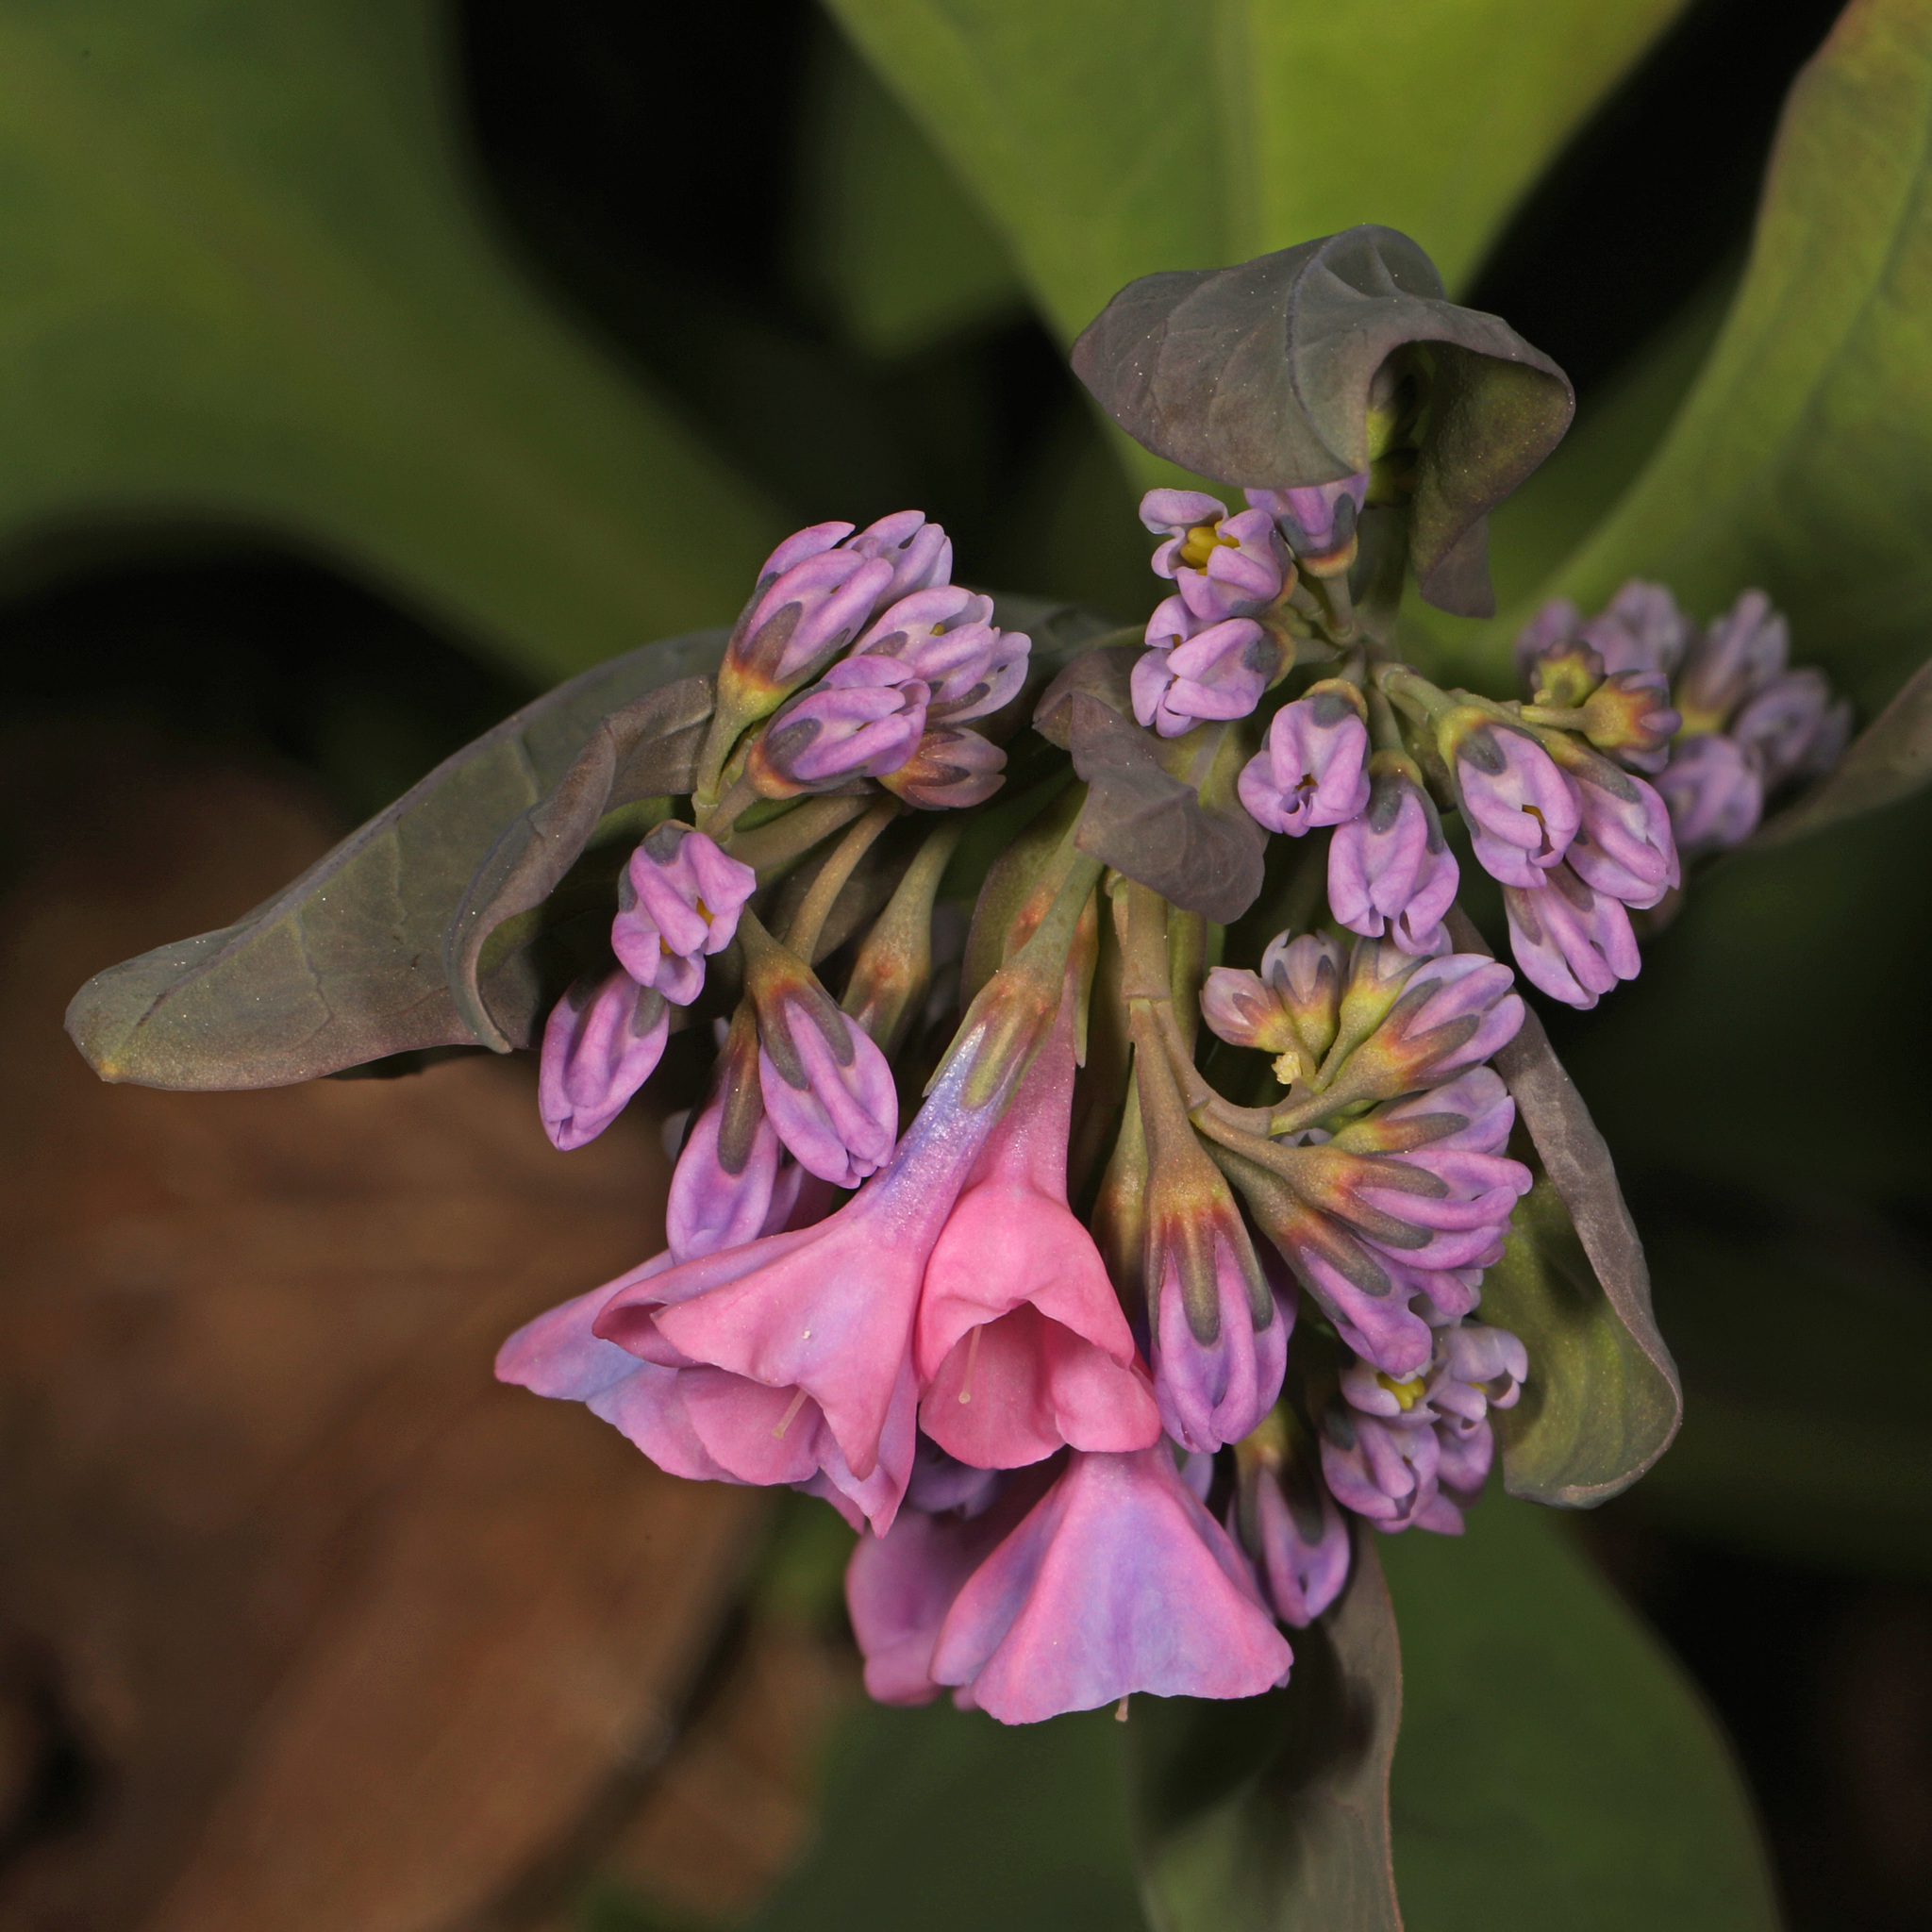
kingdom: Plantae
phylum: Tracheophyta
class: Magnoliopsida
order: Boraginales
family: Boraginaceae
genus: Mertensia
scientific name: Mertensia virginica
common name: Virginia bluebells
